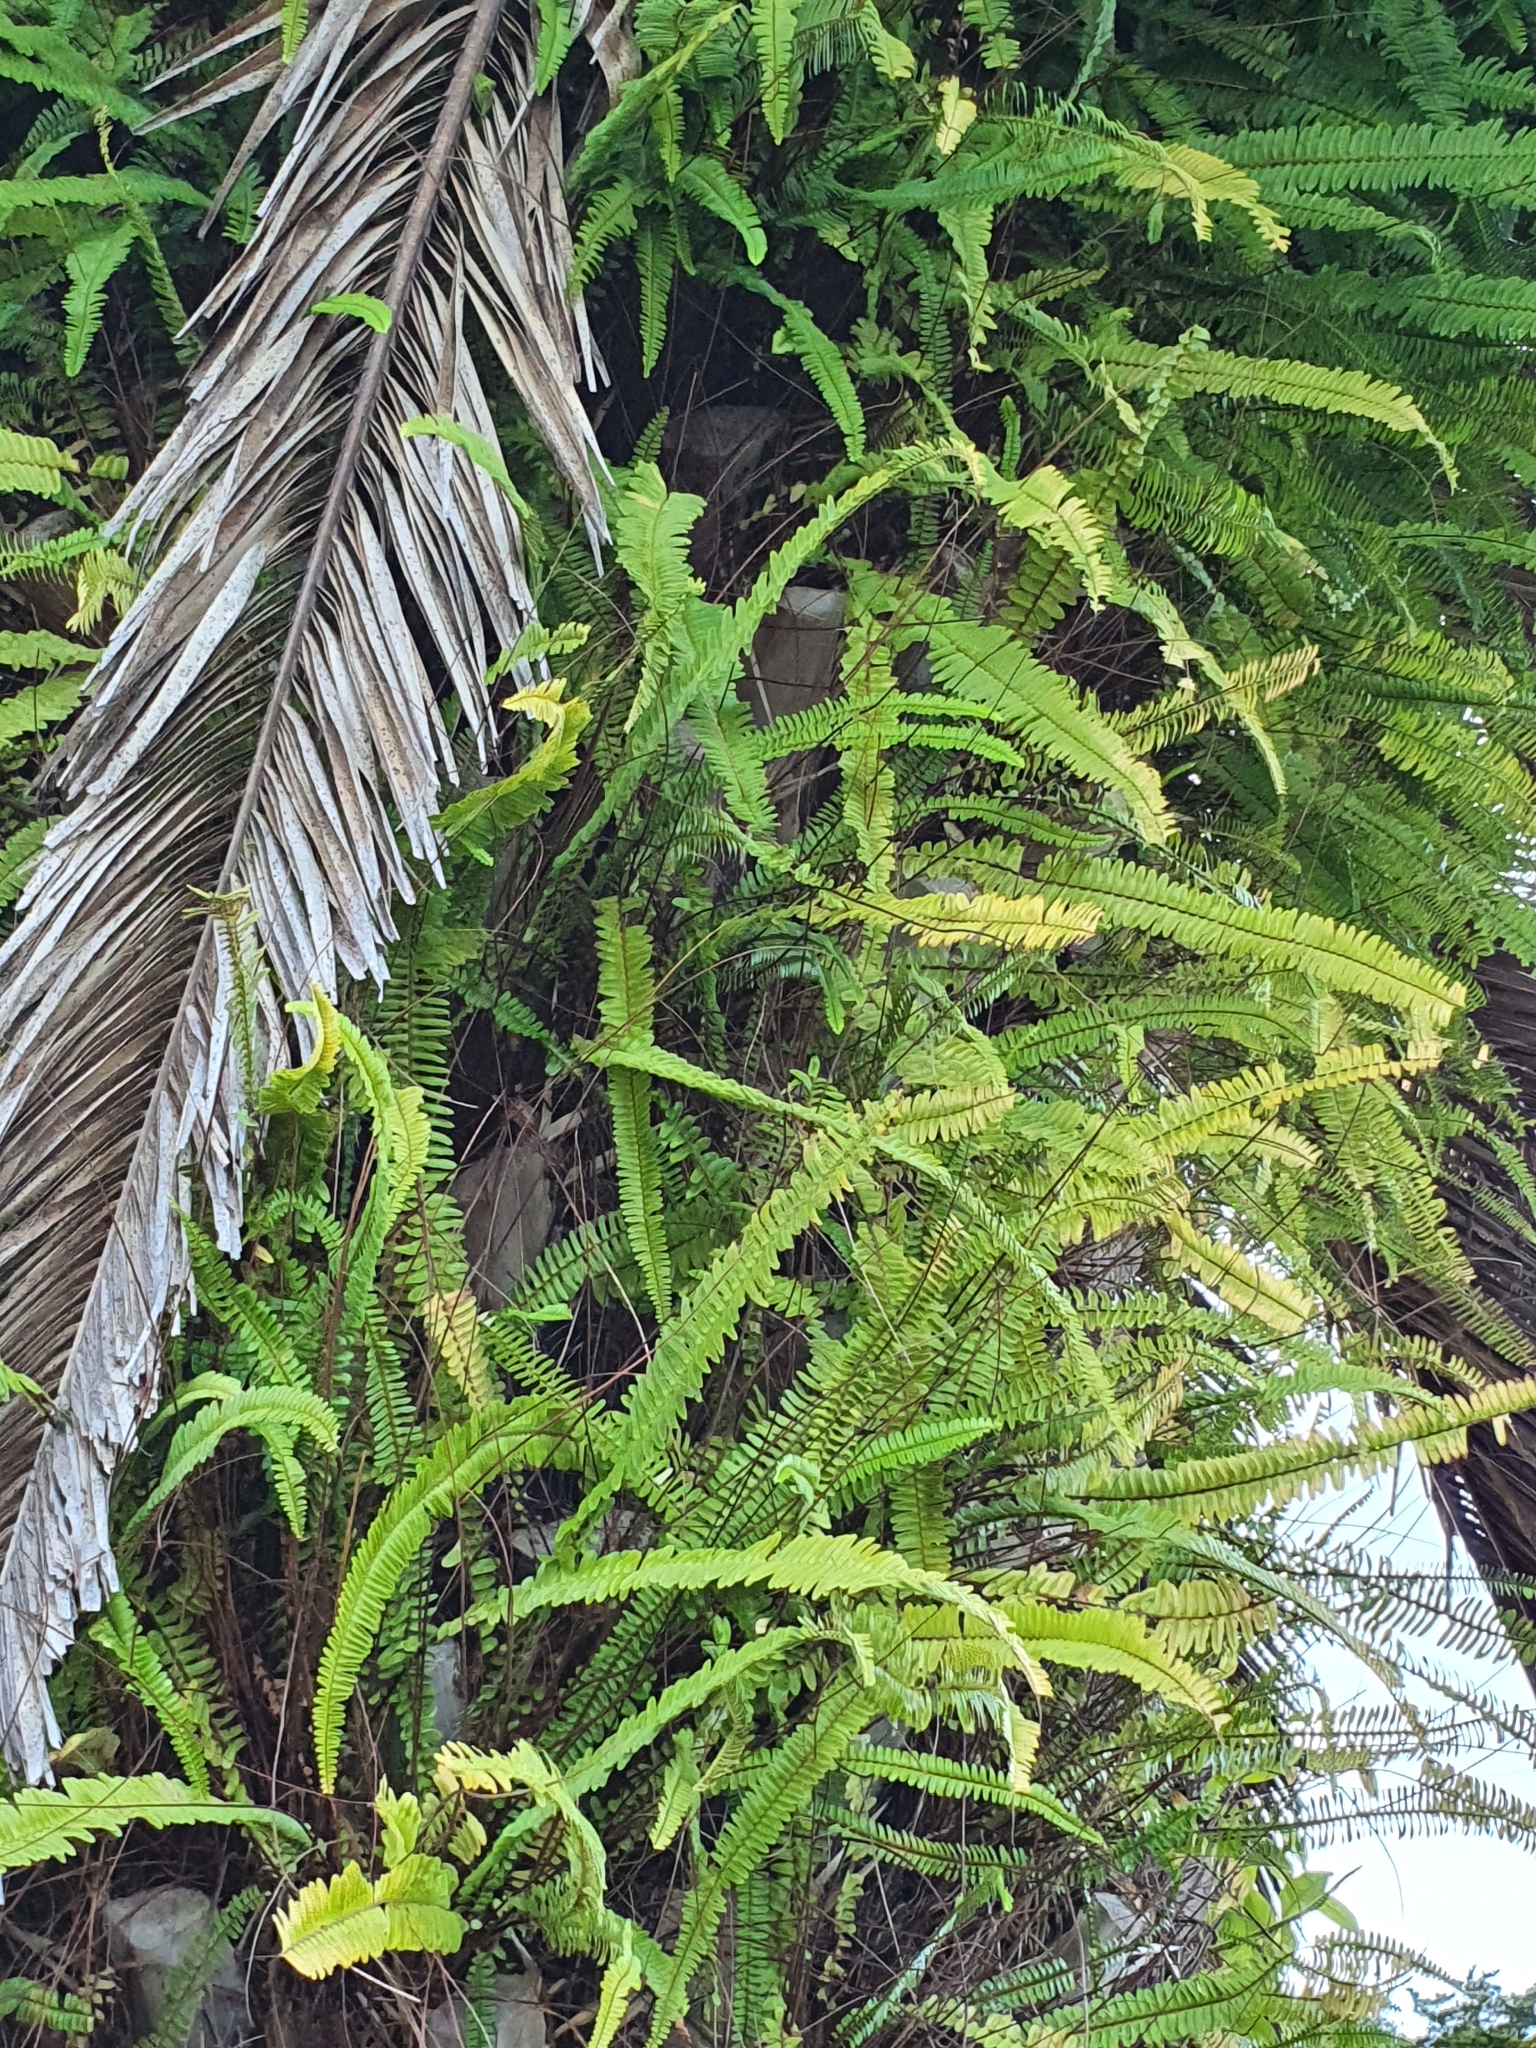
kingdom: Plantae
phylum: Tracheophyta
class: Polypodiopsida
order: Polypodiales
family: Nephrolepidaceae
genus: Nephrolepis
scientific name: Nephrolepis cordifolia
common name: Narrow swordfern
